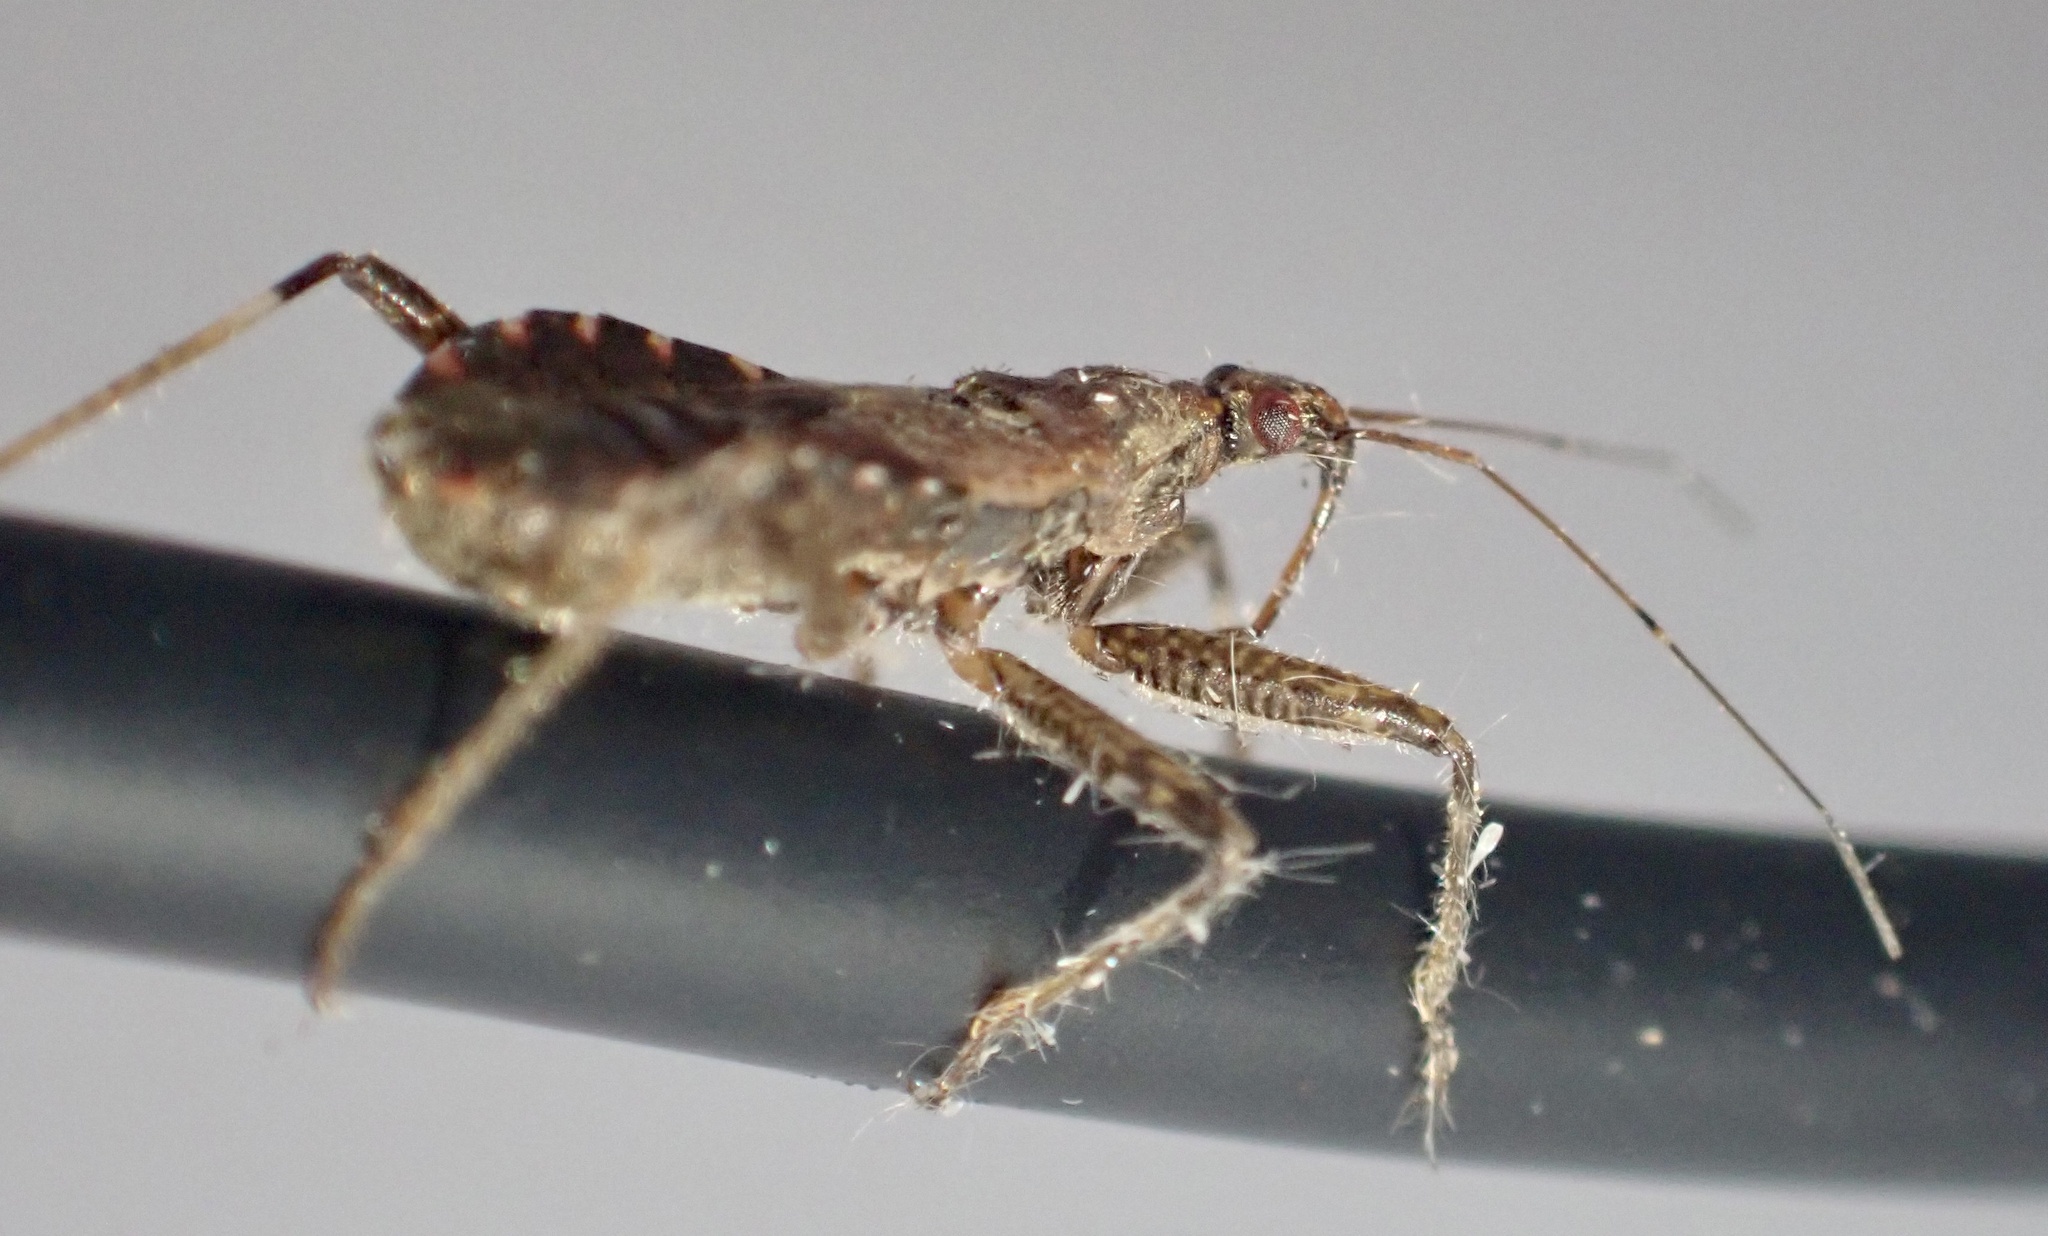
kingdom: Animalia
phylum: Arthropoda
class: Insecta
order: Hemiptera
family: Nabidae
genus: Himacerus
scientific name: Himacerus apterus
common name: Tree damsel bug
